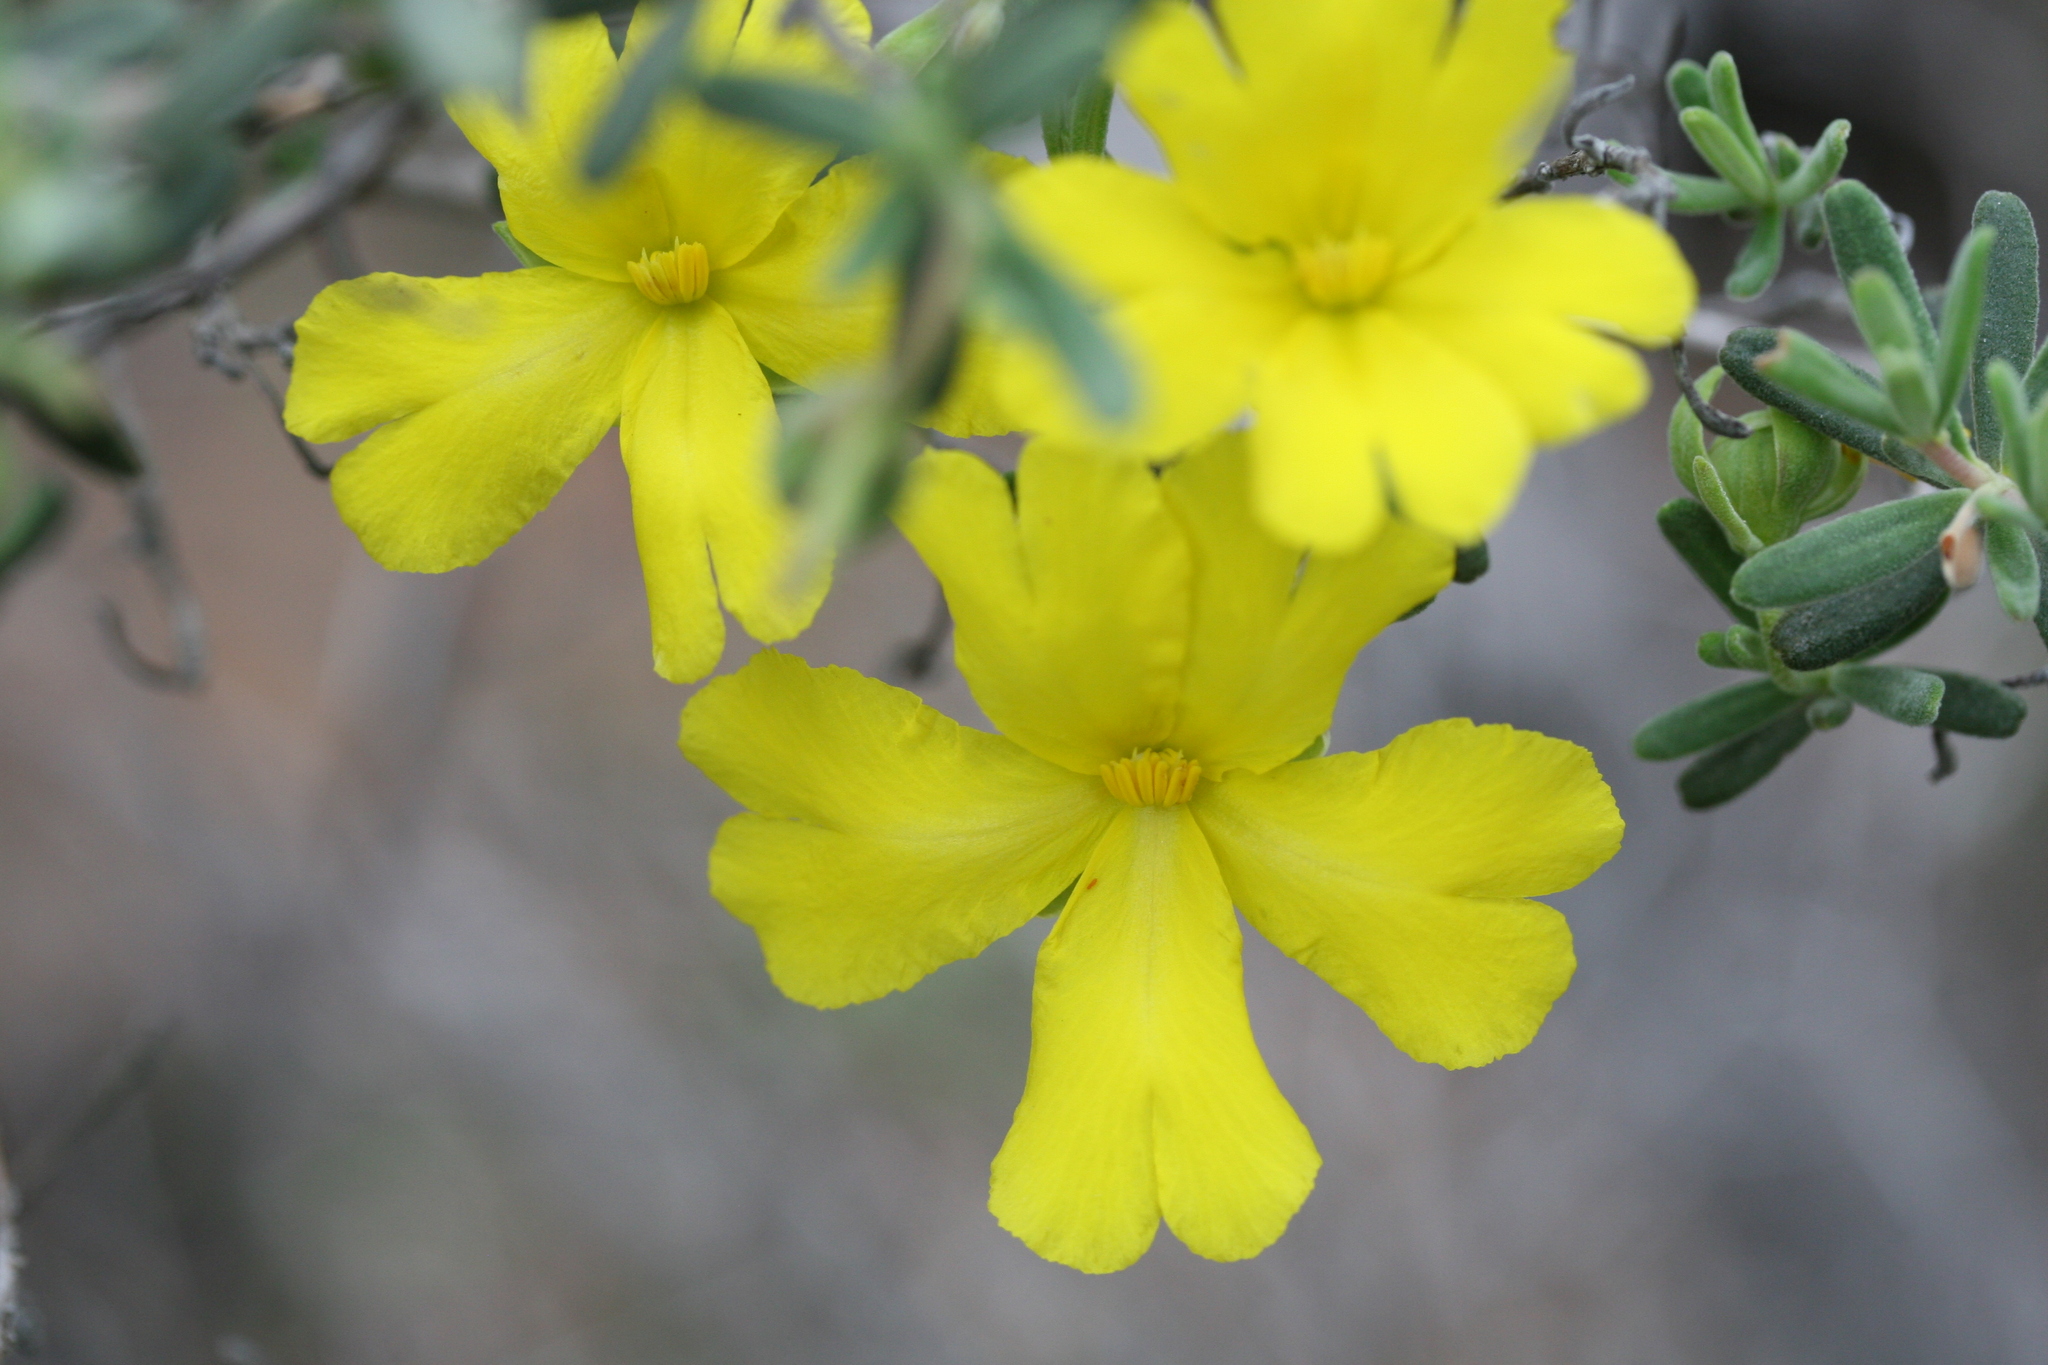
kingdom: Plantae
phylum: Tracheophyta
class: Magnoliopsida
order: Dilleniales
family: Dilleniaceae
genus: Hibbertia
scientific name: Hibbertia hypericoides
